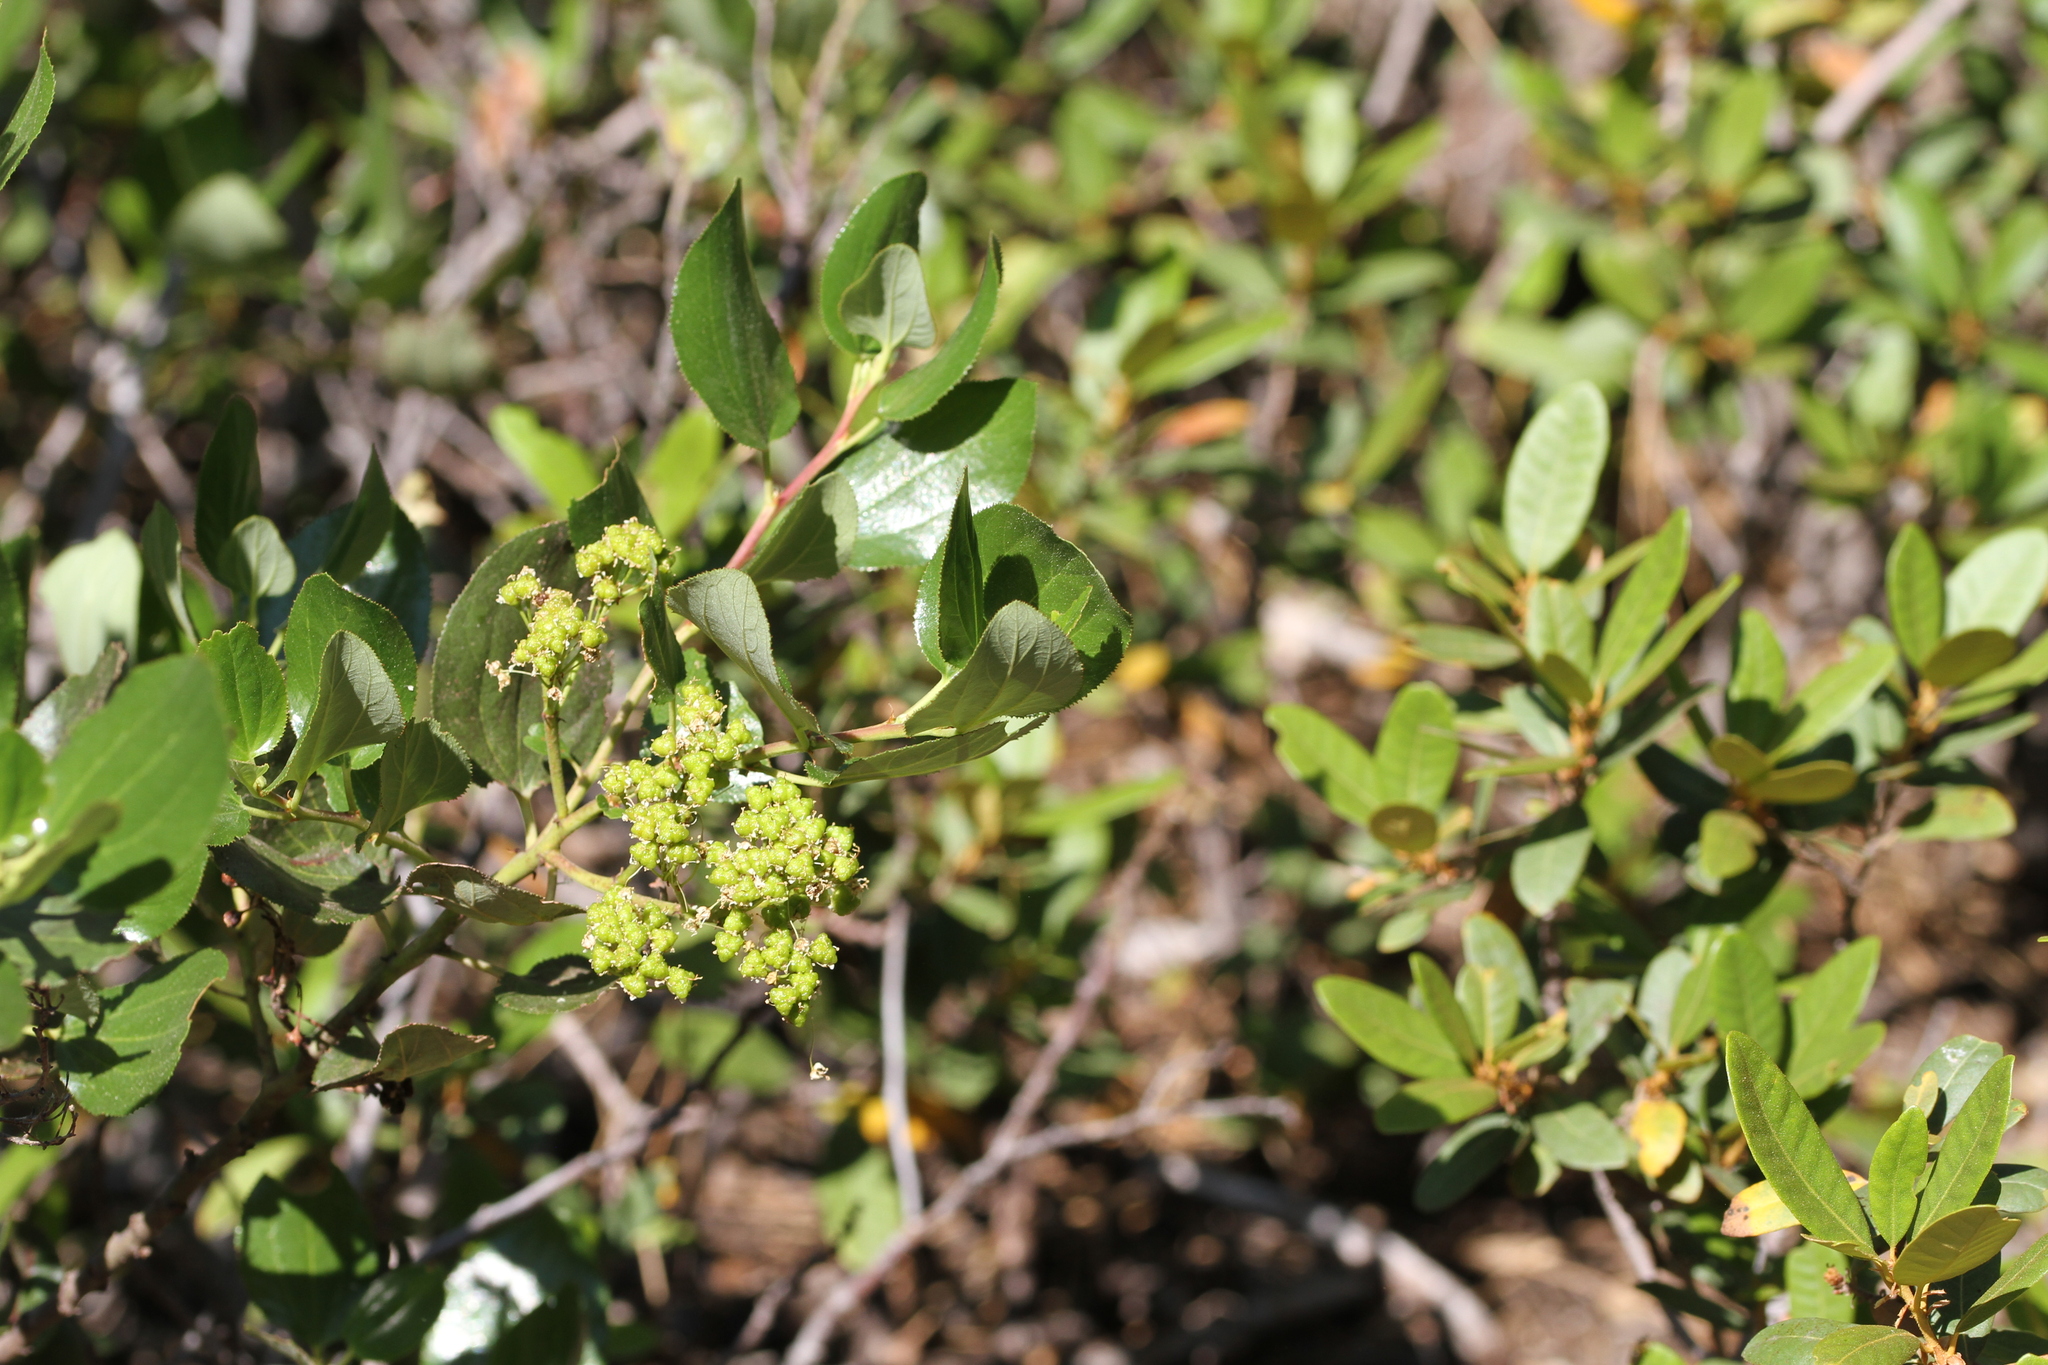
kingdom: Plantae
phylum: Tracheophyta
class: Magnoliopsida
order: Rosales
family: Rhamnaceae
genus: Ceanothus
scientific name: Ceanothus velutinus
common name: Snowbrush
